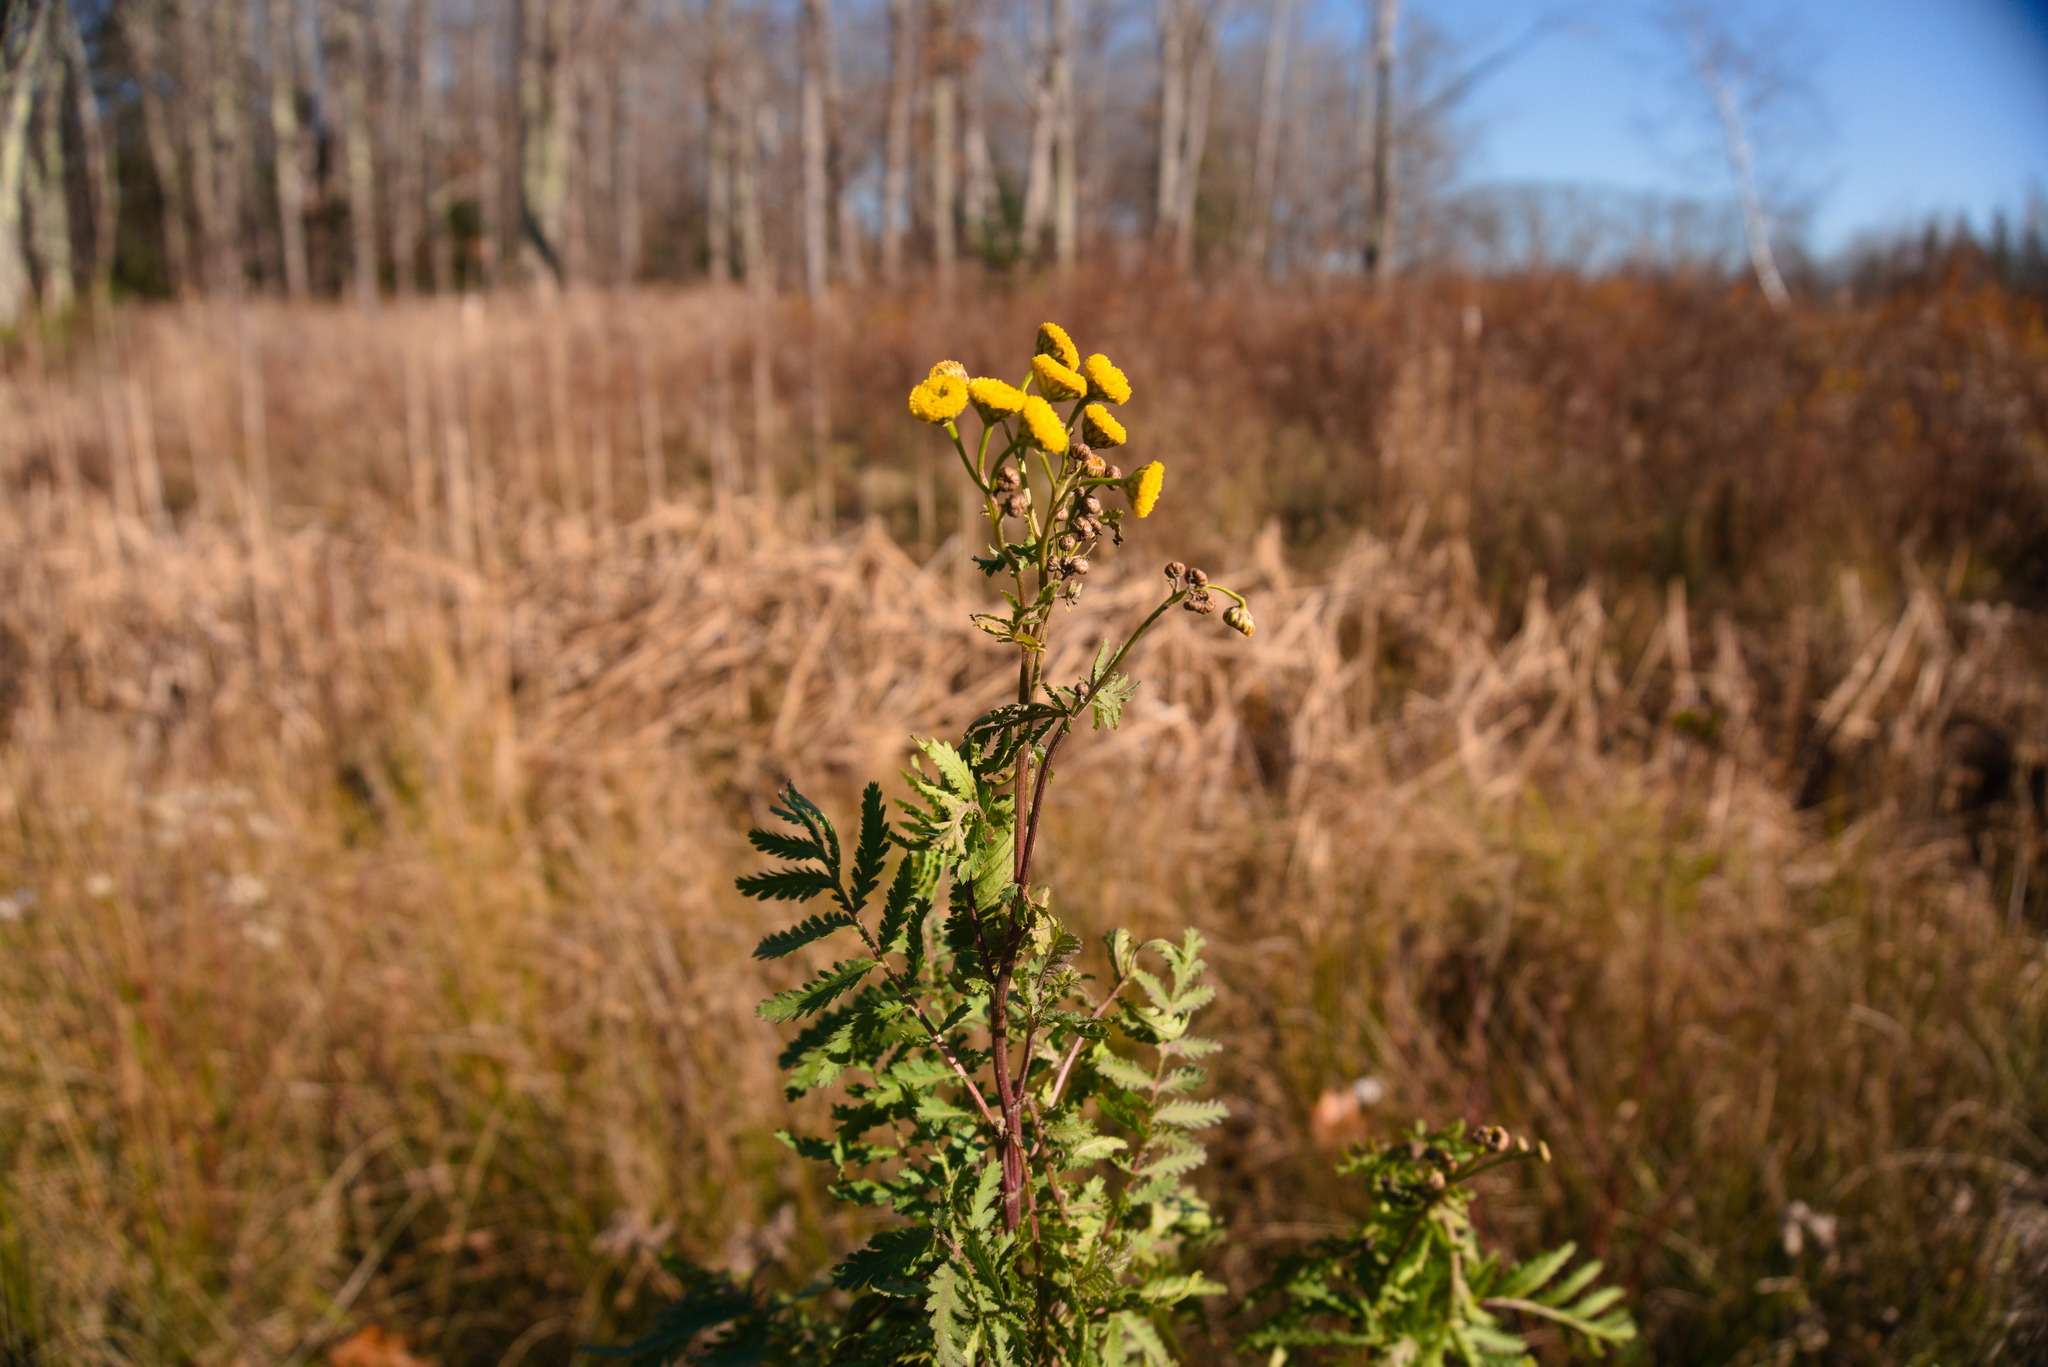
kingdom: Plantae
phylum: Tracheophyta
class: Magnoliopsida
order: Asterales
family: Asteraceae
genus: Tanacetum
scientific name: Tanacetum vulgare
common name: Common tansy
